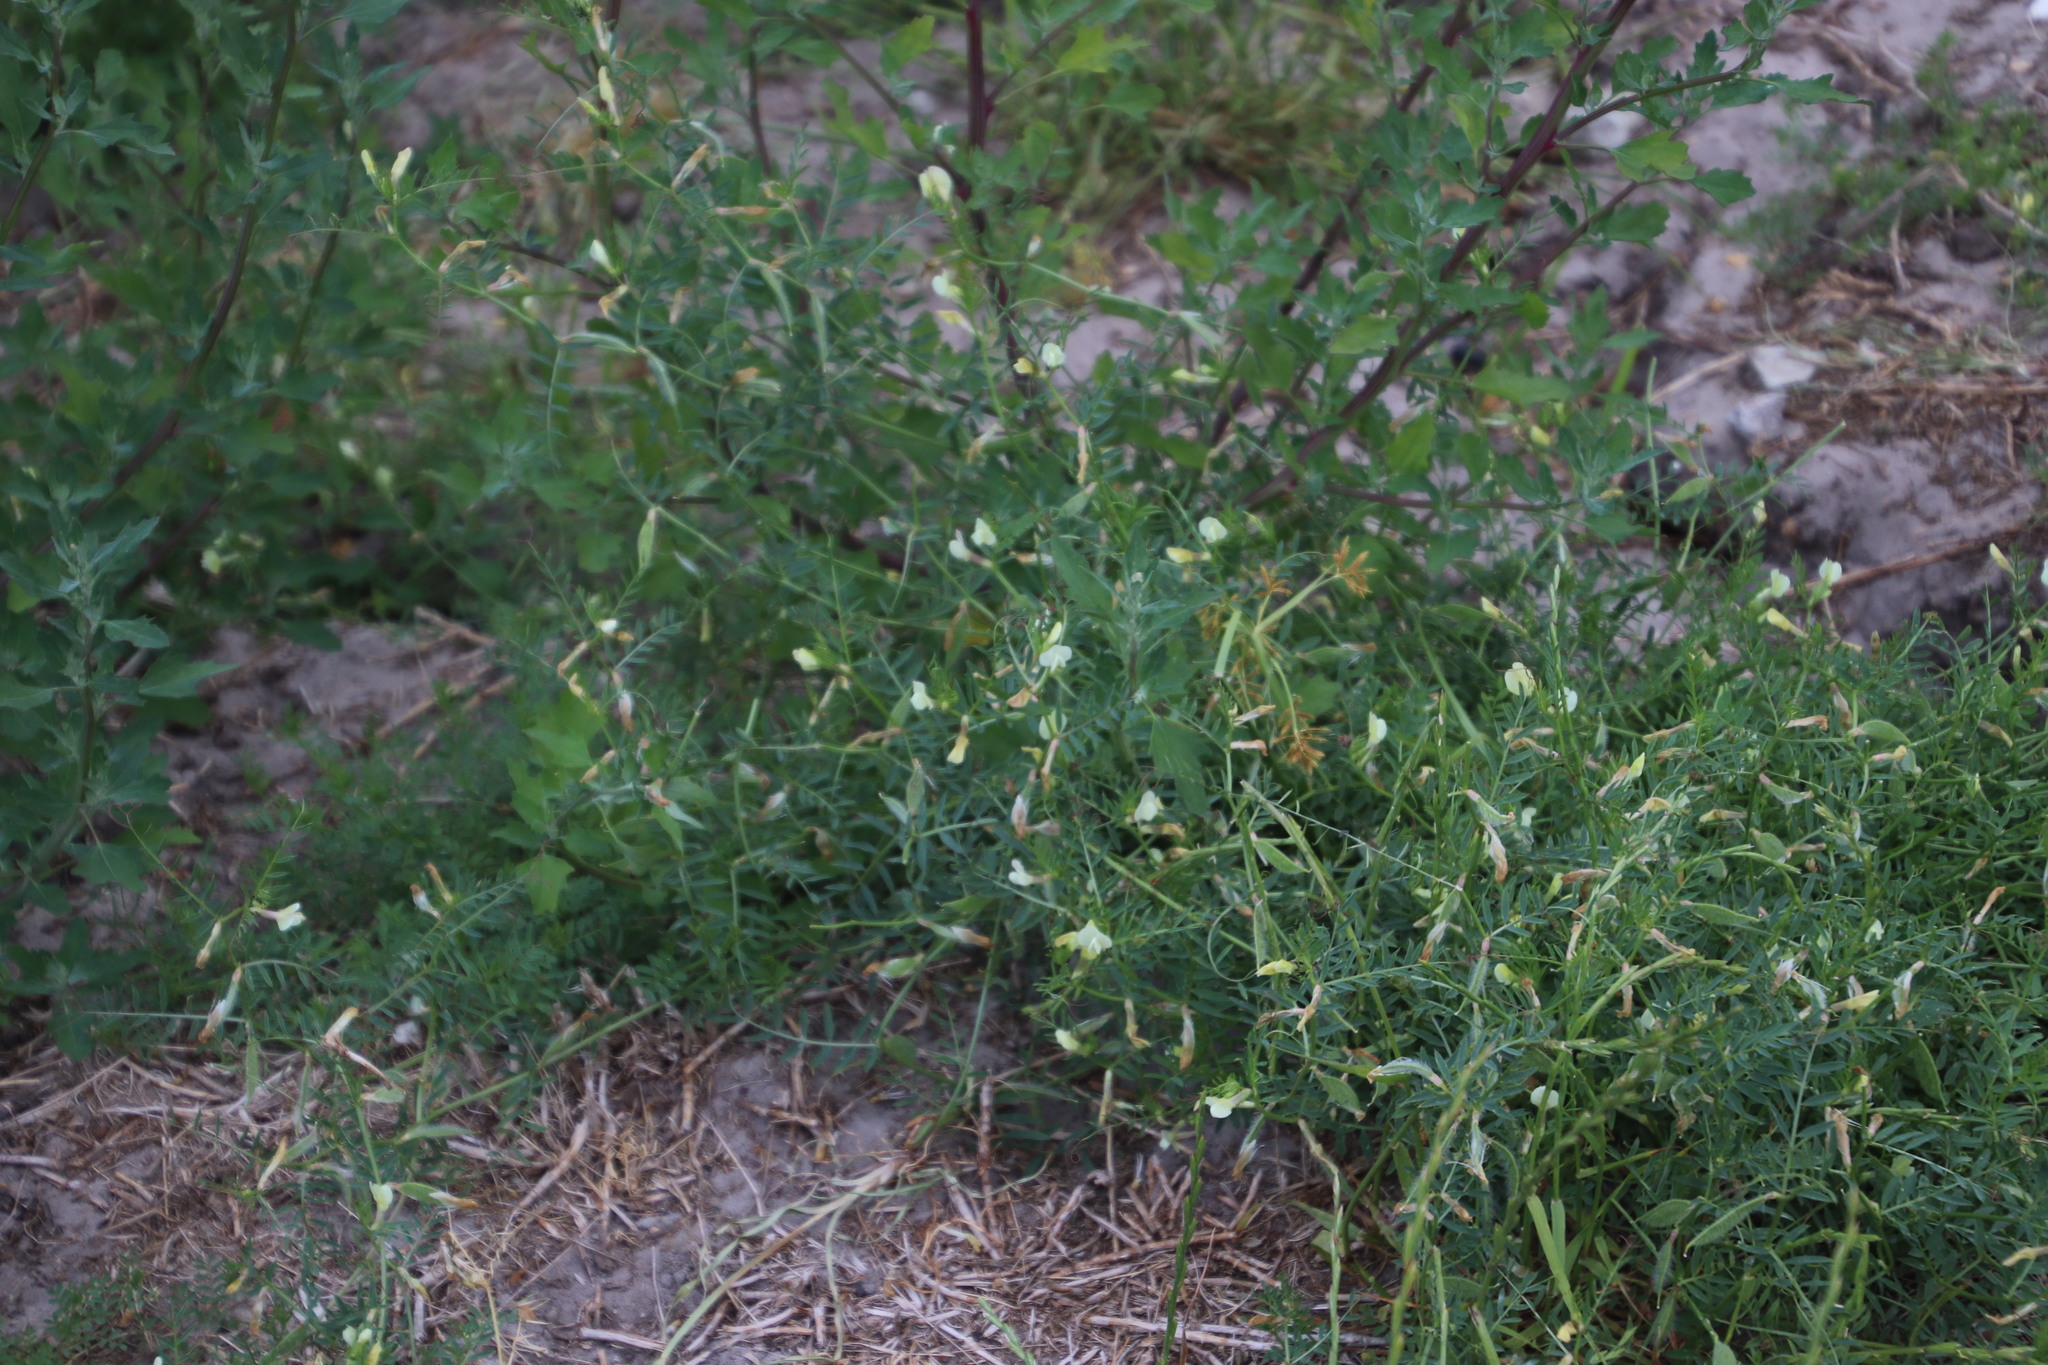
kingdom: Plantae
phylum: Tracheophyta
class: Magnoliopsida
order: Fabales
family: Fabaceae
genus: Vicia
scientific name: Vicia lutea
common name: Smooth yellow vetch
